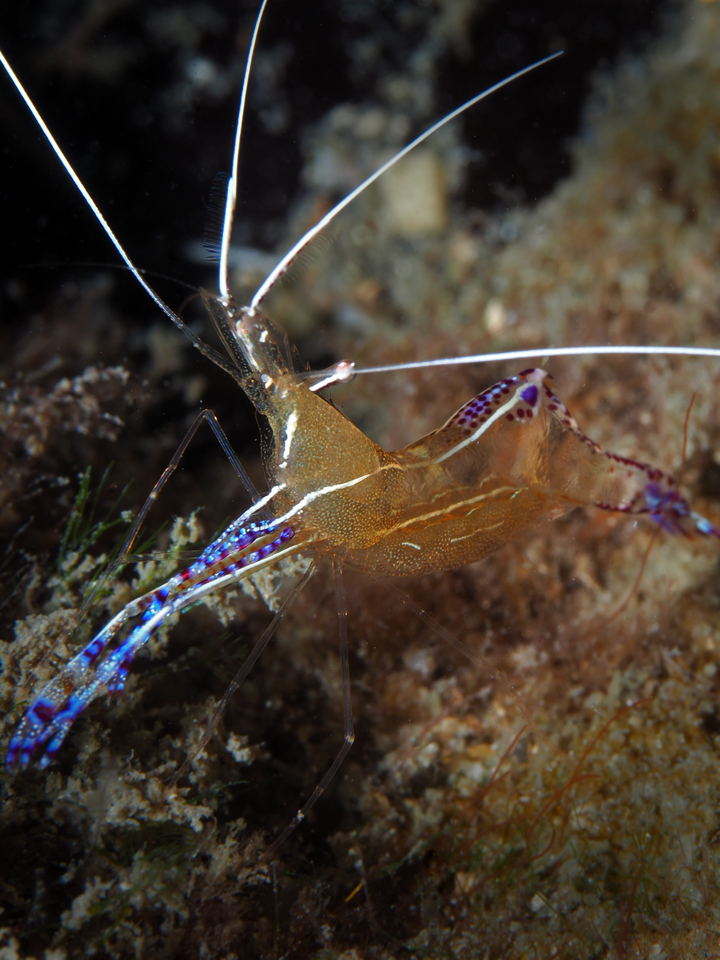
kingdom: Animalia
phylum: Arthropoda
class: Malacostraca
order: Decapoda
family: Palaemonidae
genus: Ancylomenes
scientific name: Ancylomenes pedersoni
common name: Pederson's cleaning shrimp
